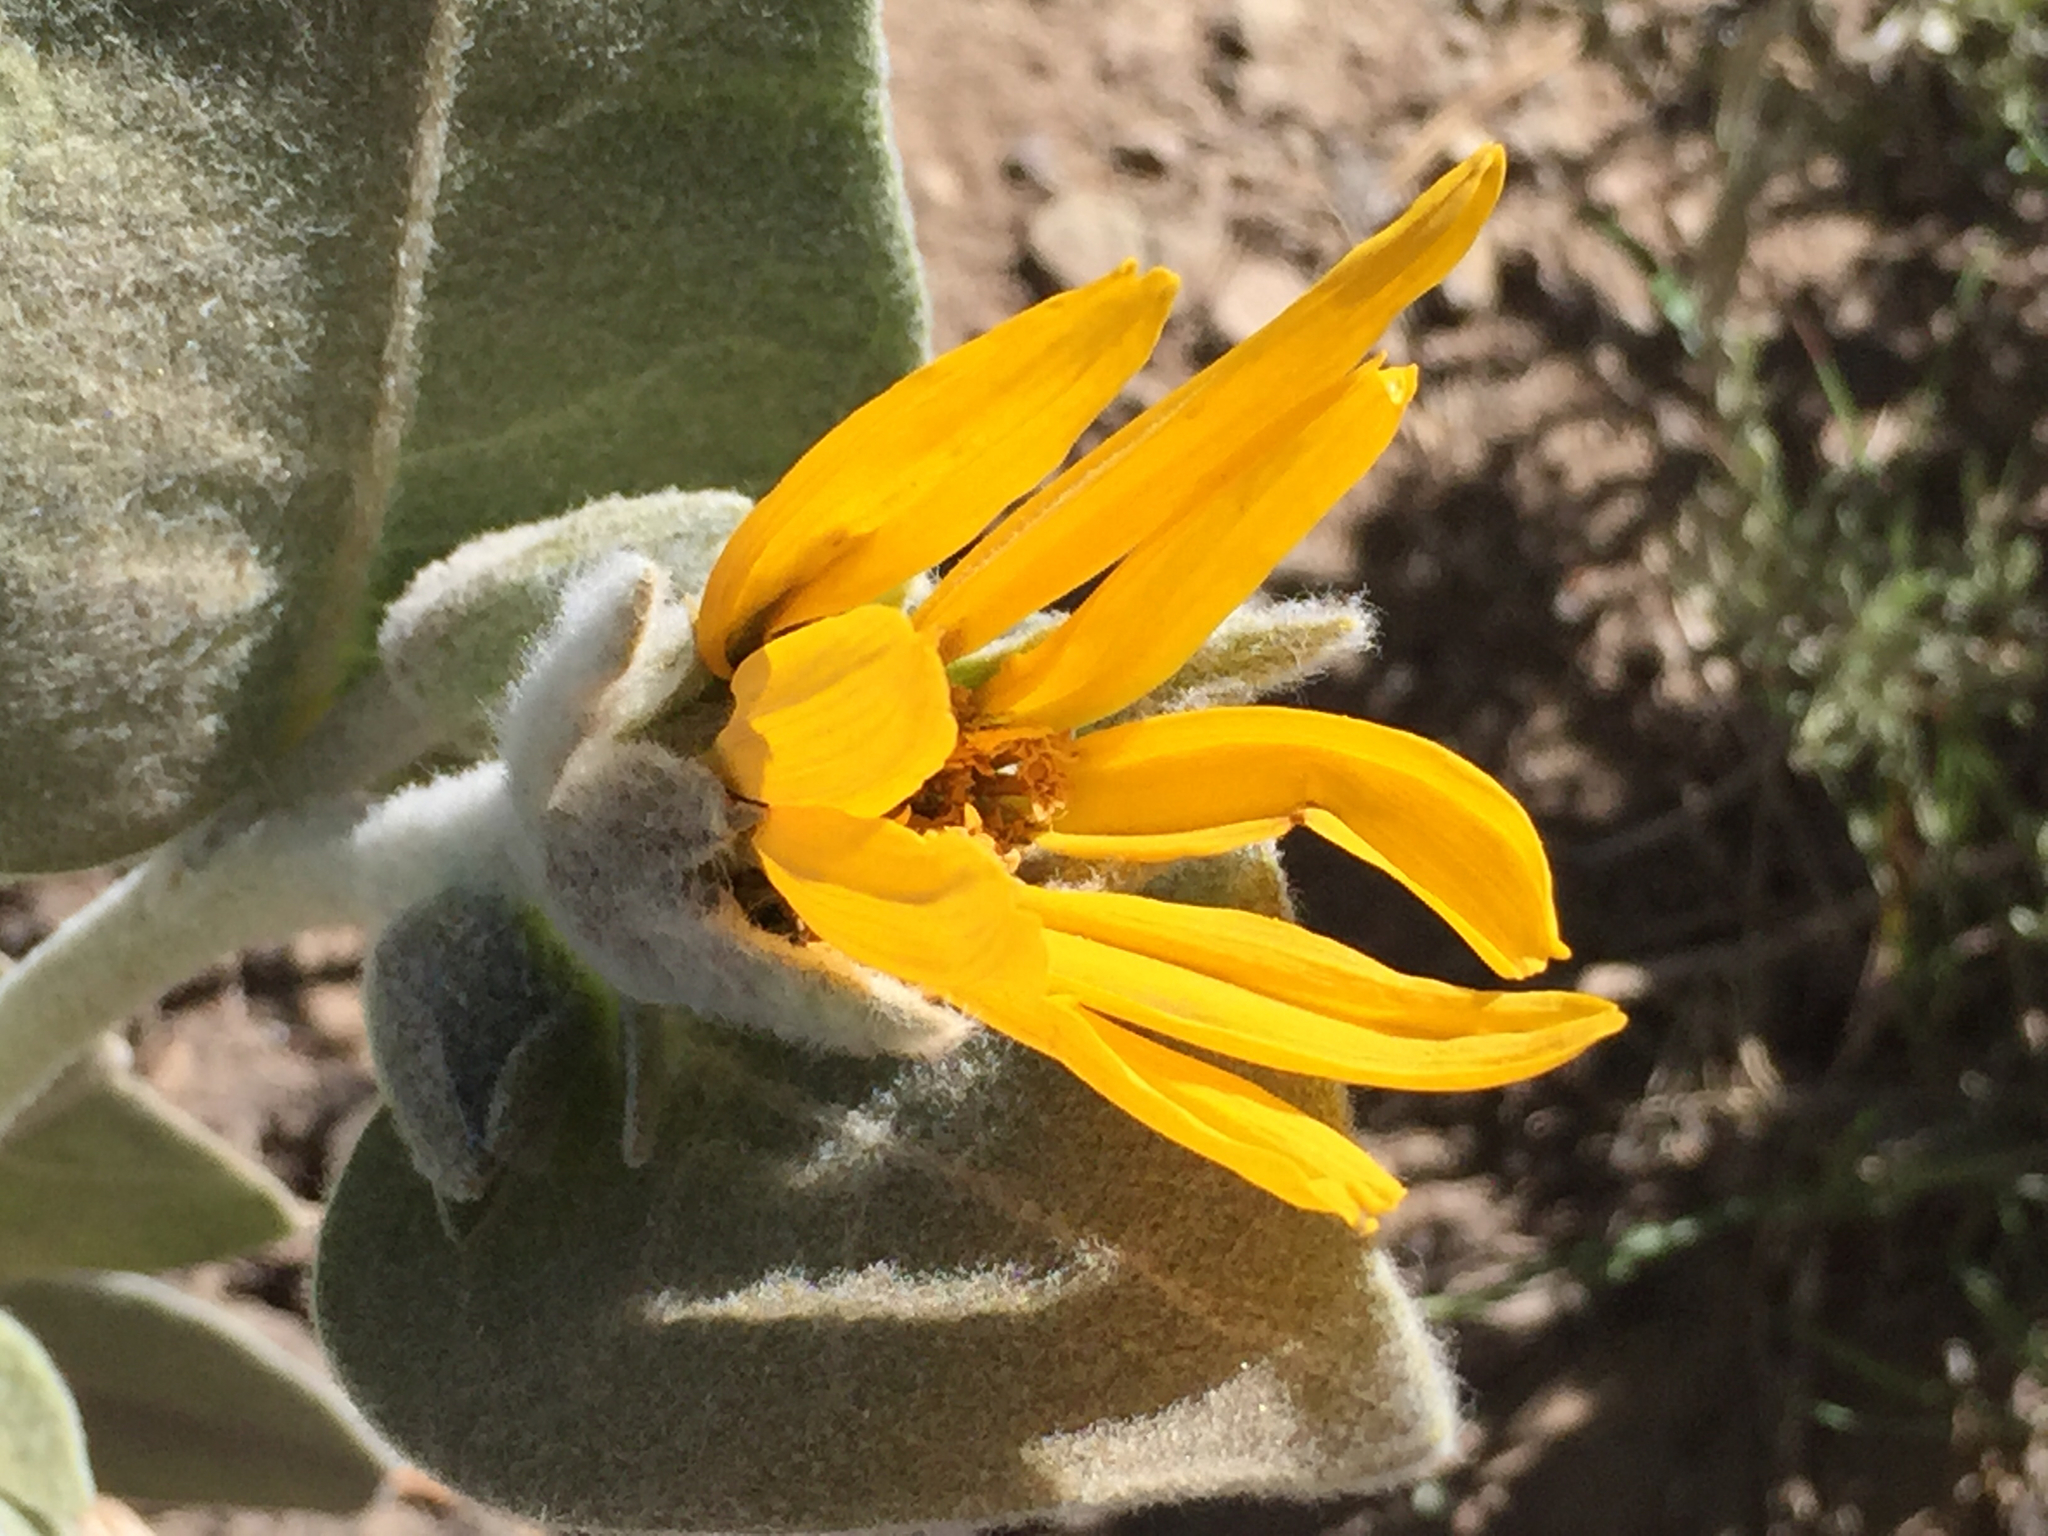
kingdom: Plantae
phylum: Tracheophyta
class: Magnoliopsida
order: Asterales
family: Asteraceae
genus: Wyethia
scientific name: Wyethia mollis
